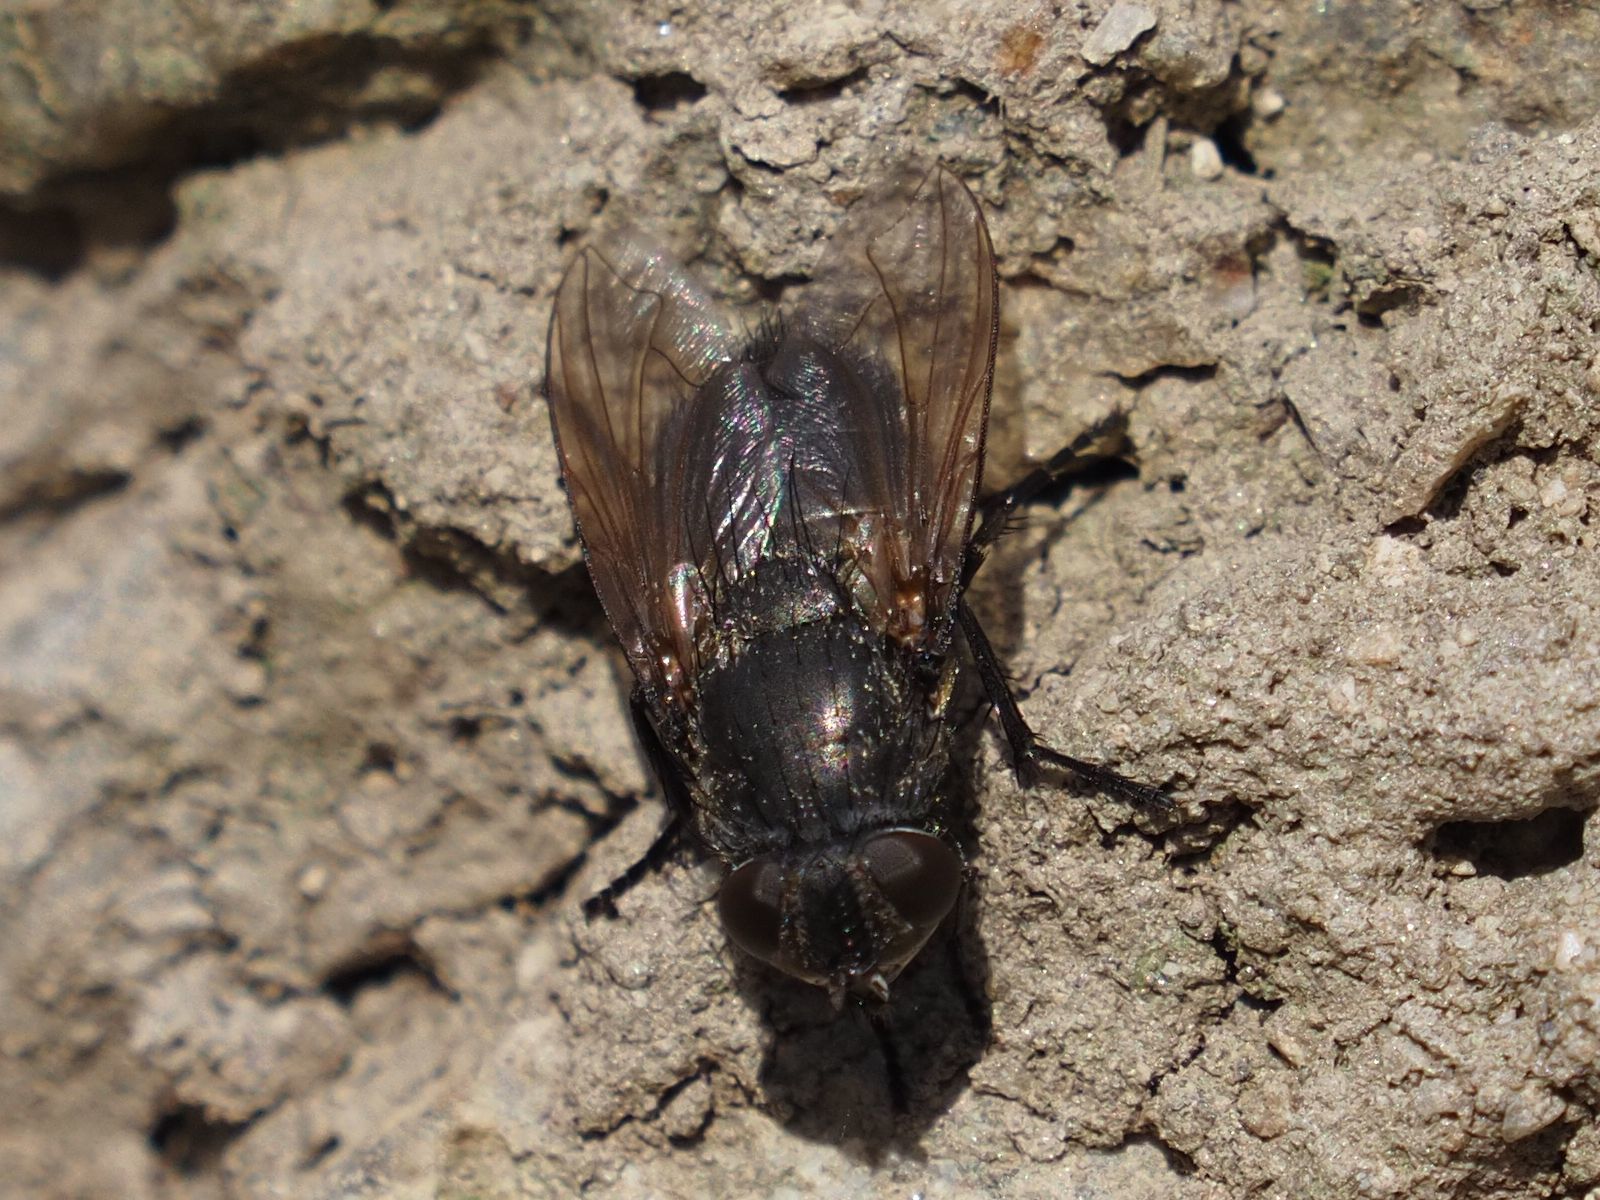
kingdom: Animalia
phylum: Arthropoda
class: Insecta
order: Diptera
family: Polleniidae
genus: Pollenia
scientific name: Pollenia amentaria
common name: Black-bellied clusterfly
